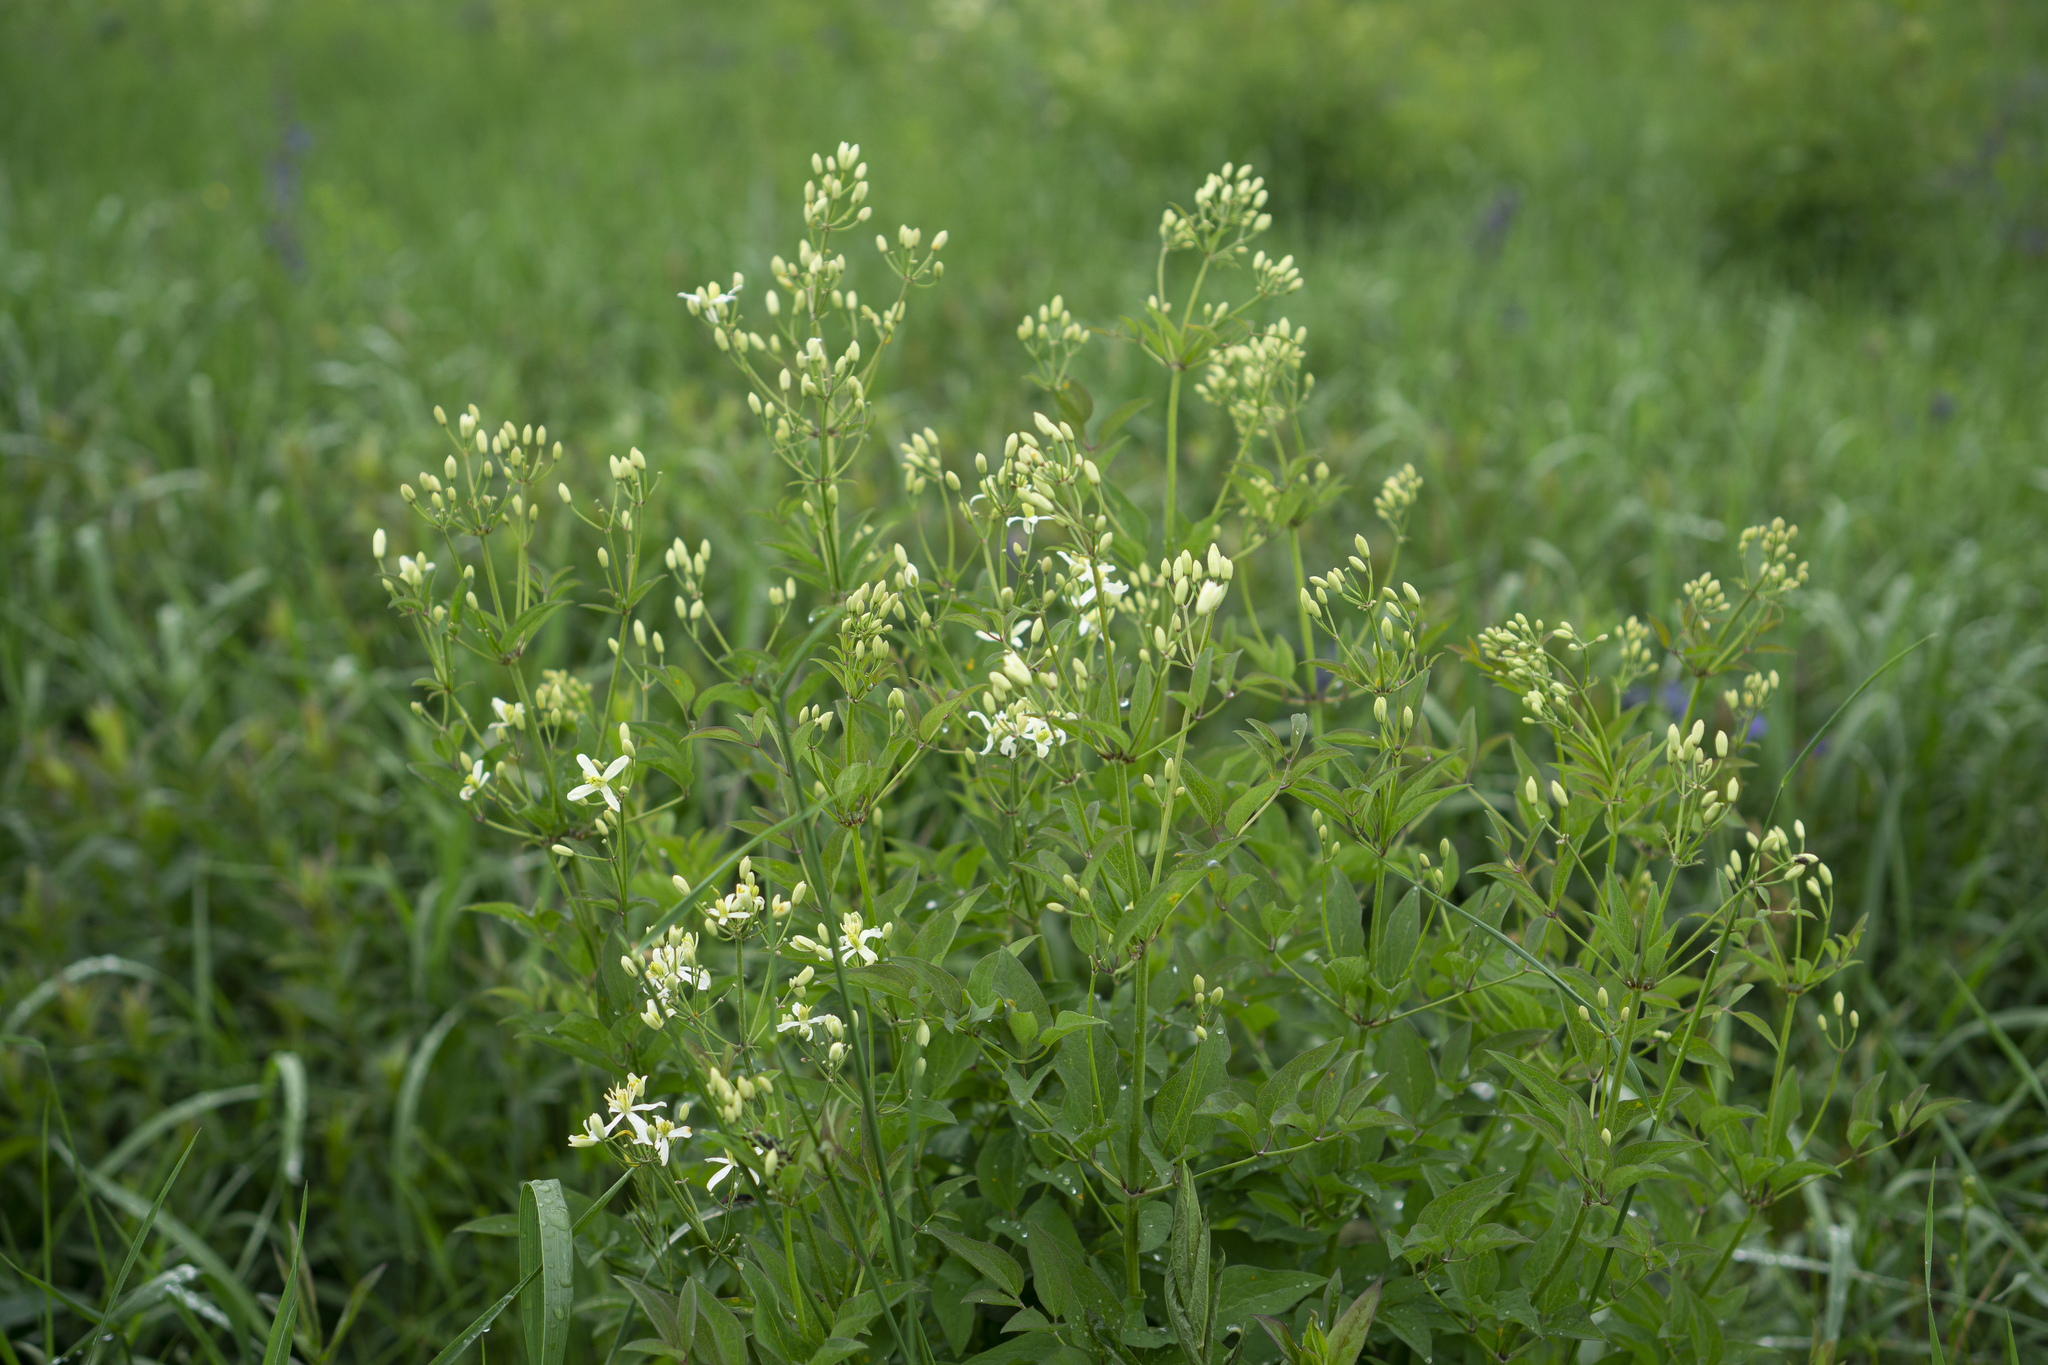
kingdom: Plantae
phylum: Tracheophyta
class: Magnoliopsida
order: Ranunculales
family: Ranunculaceae
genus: Clematis
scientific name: Clematis recta
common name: Ground clematis
